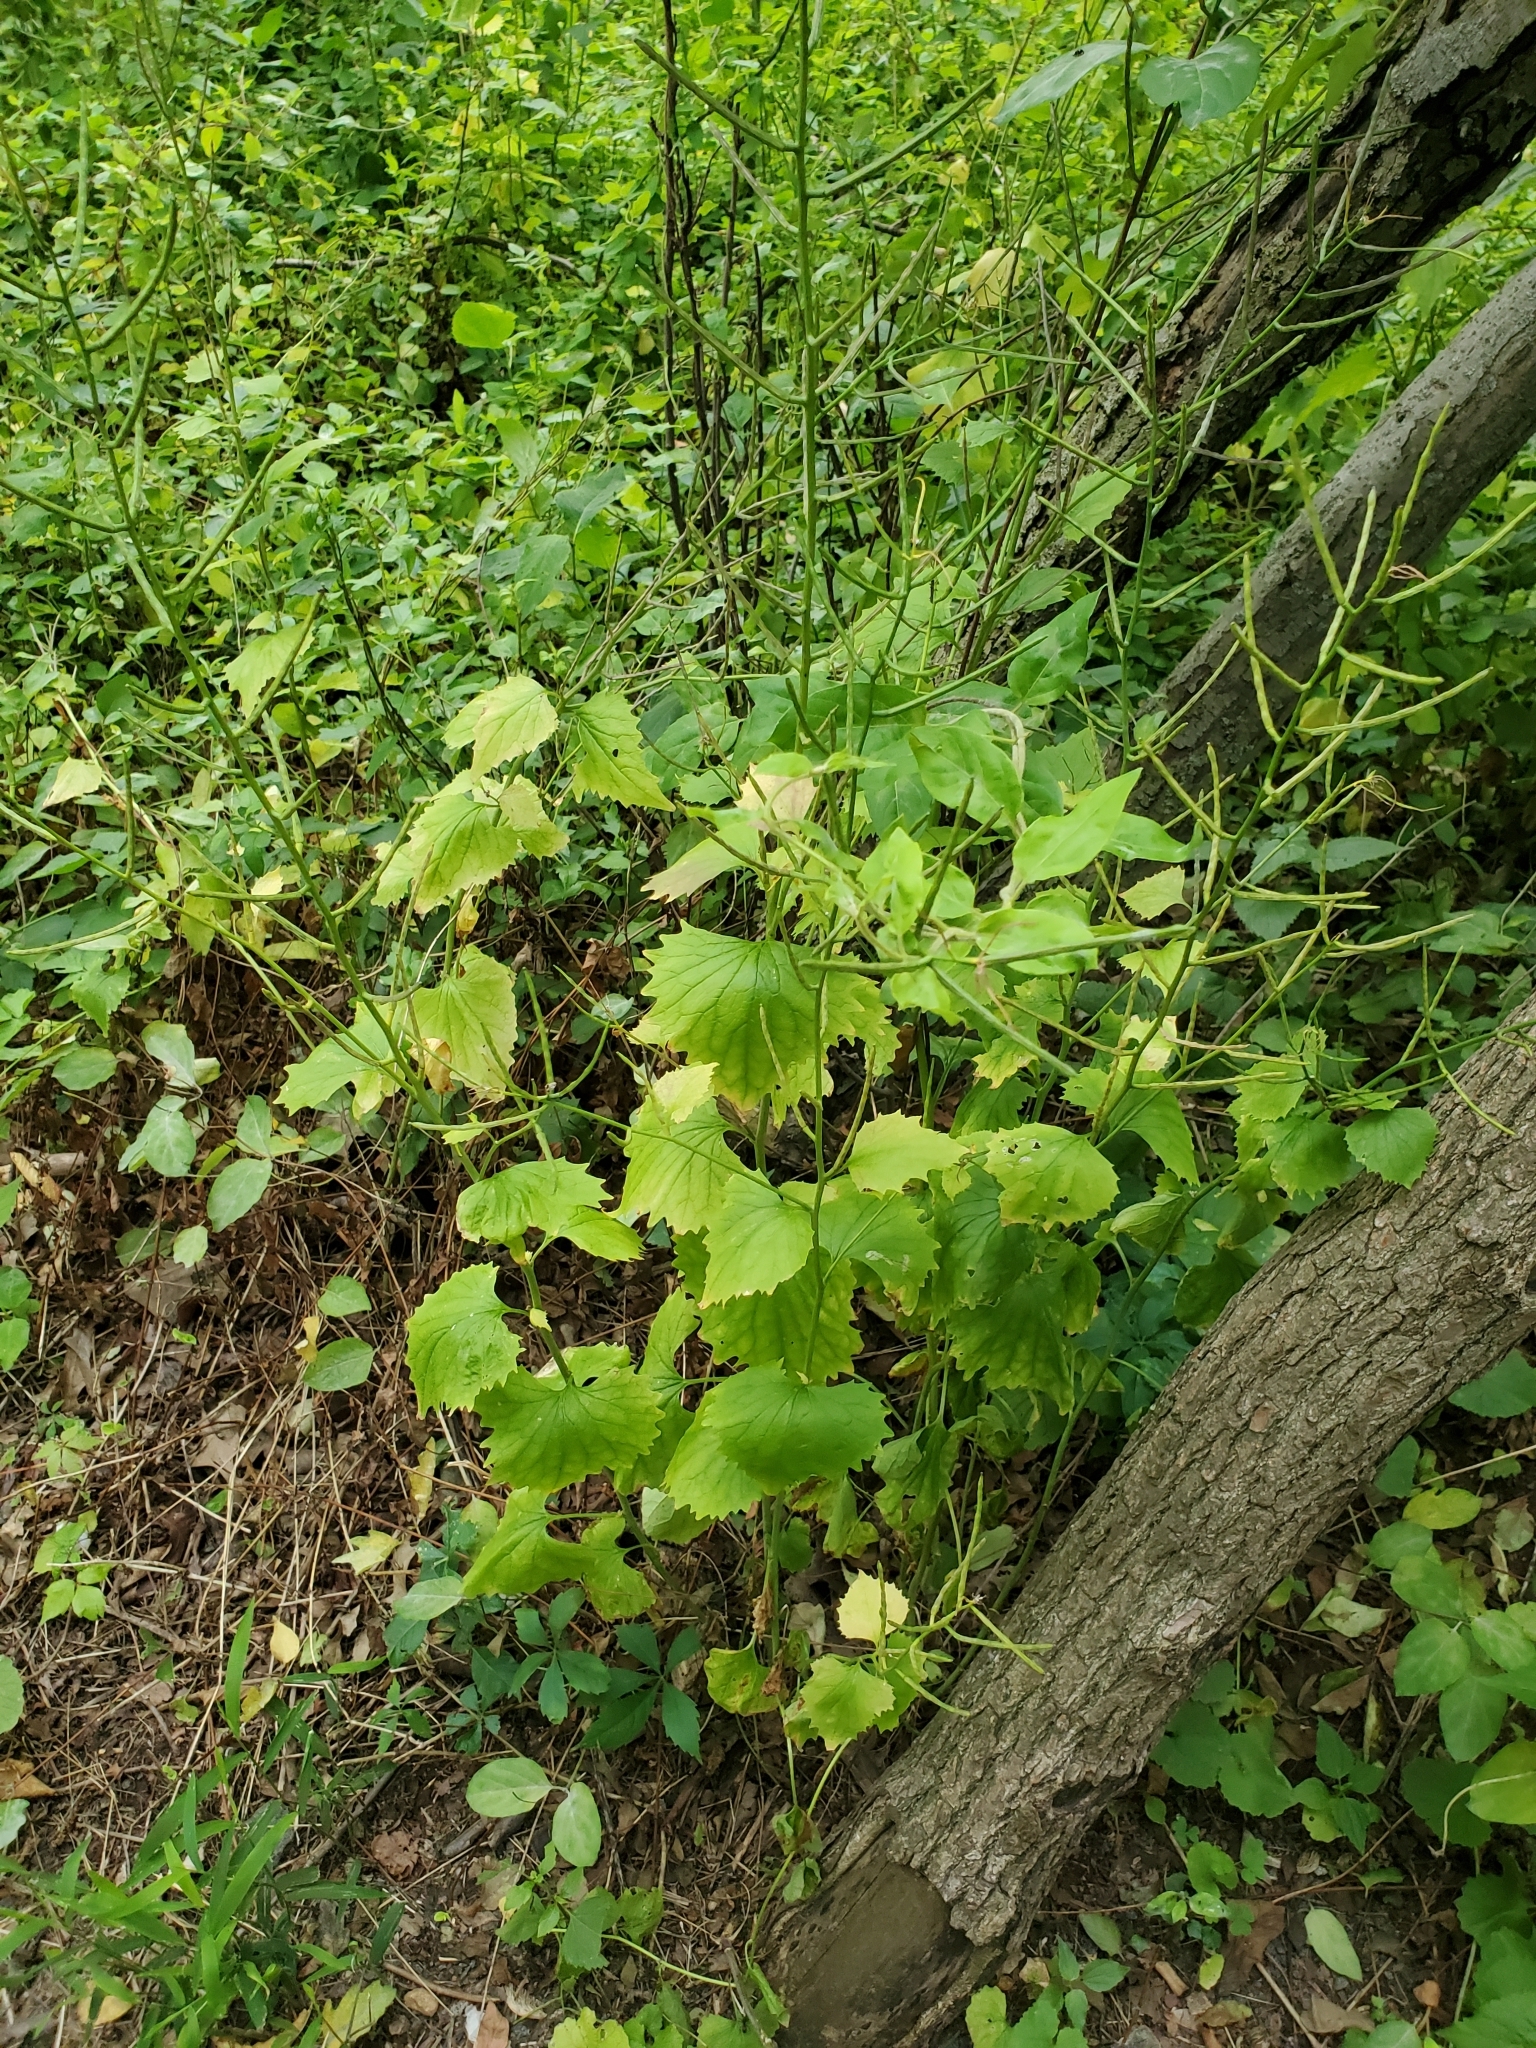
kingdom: Plantae
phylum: Tracheophyta
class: Magnoliopsida
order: Brassicales
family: Brassicaceae
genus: Alliaria
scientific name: Alliaria petiolata
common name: Garlic mustard
